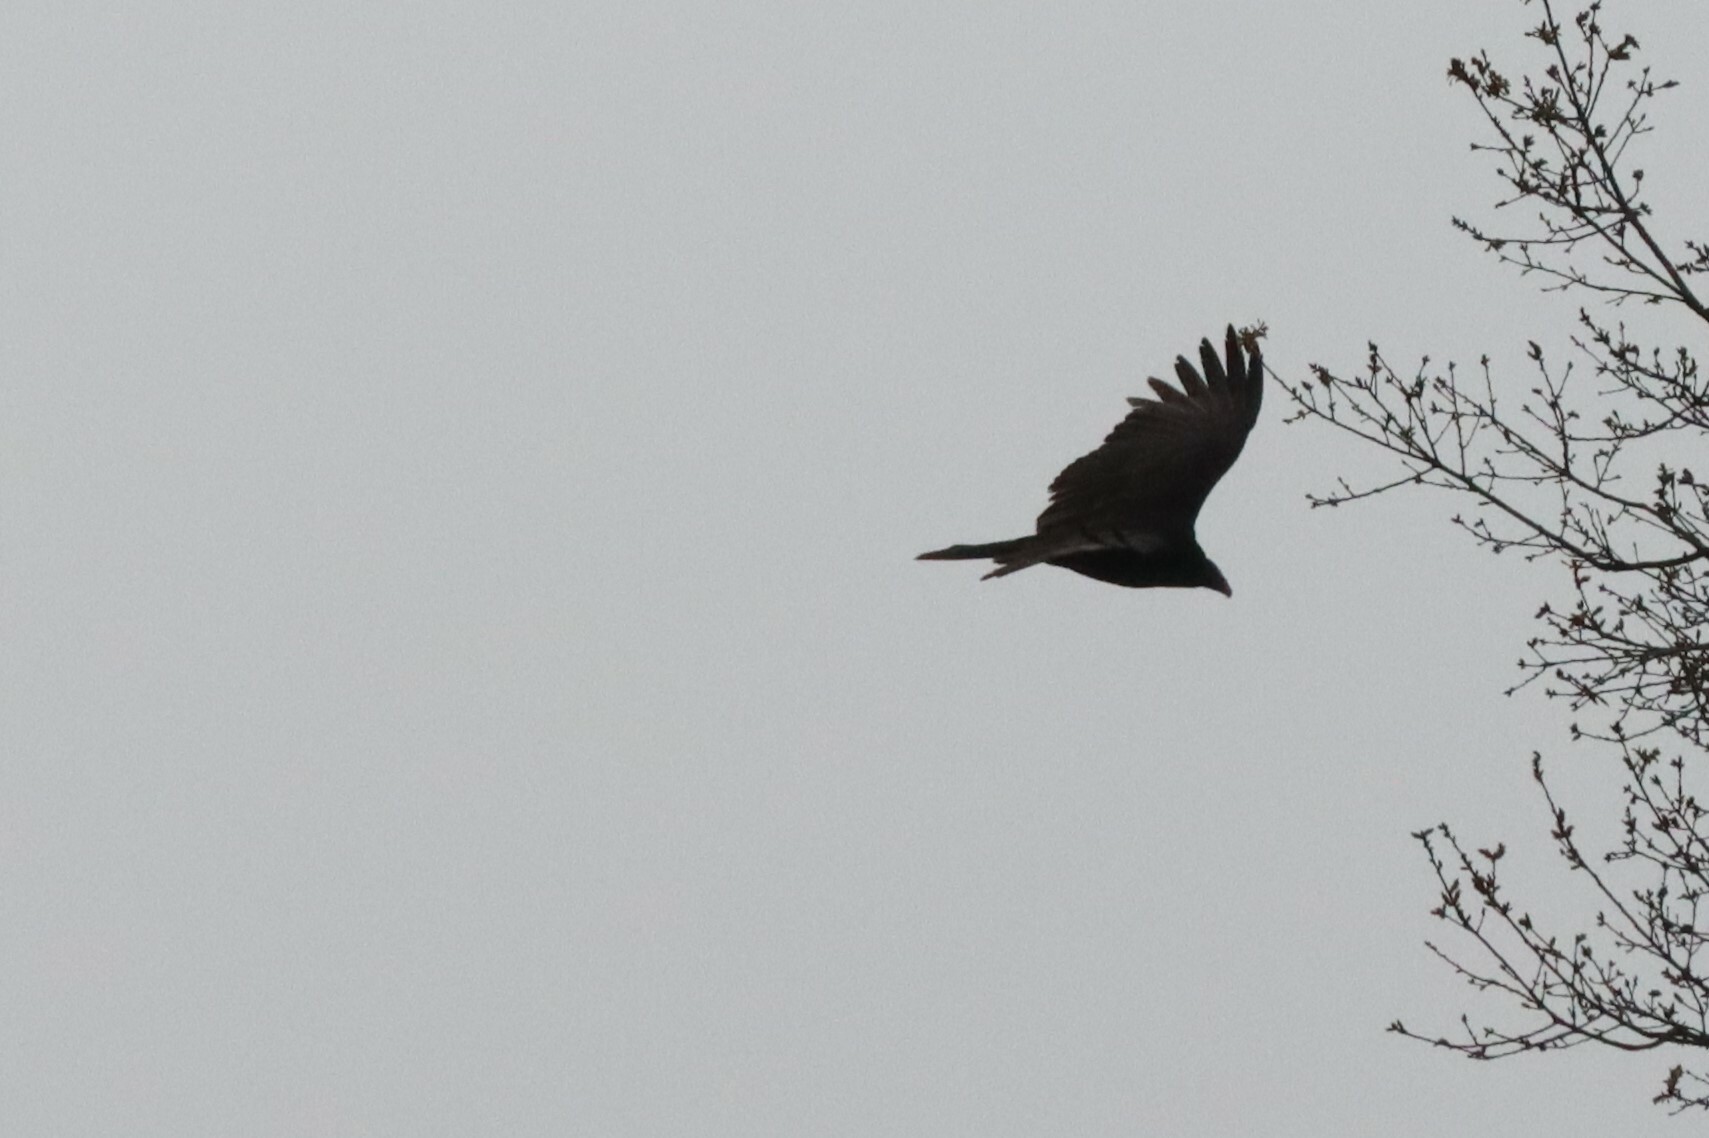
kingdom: Animalia
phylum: Chordata
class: Aves
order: Accipitriformes
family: Cathartidae
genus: Cathartes
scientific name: Cathartes aura
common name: Turkey vulture
